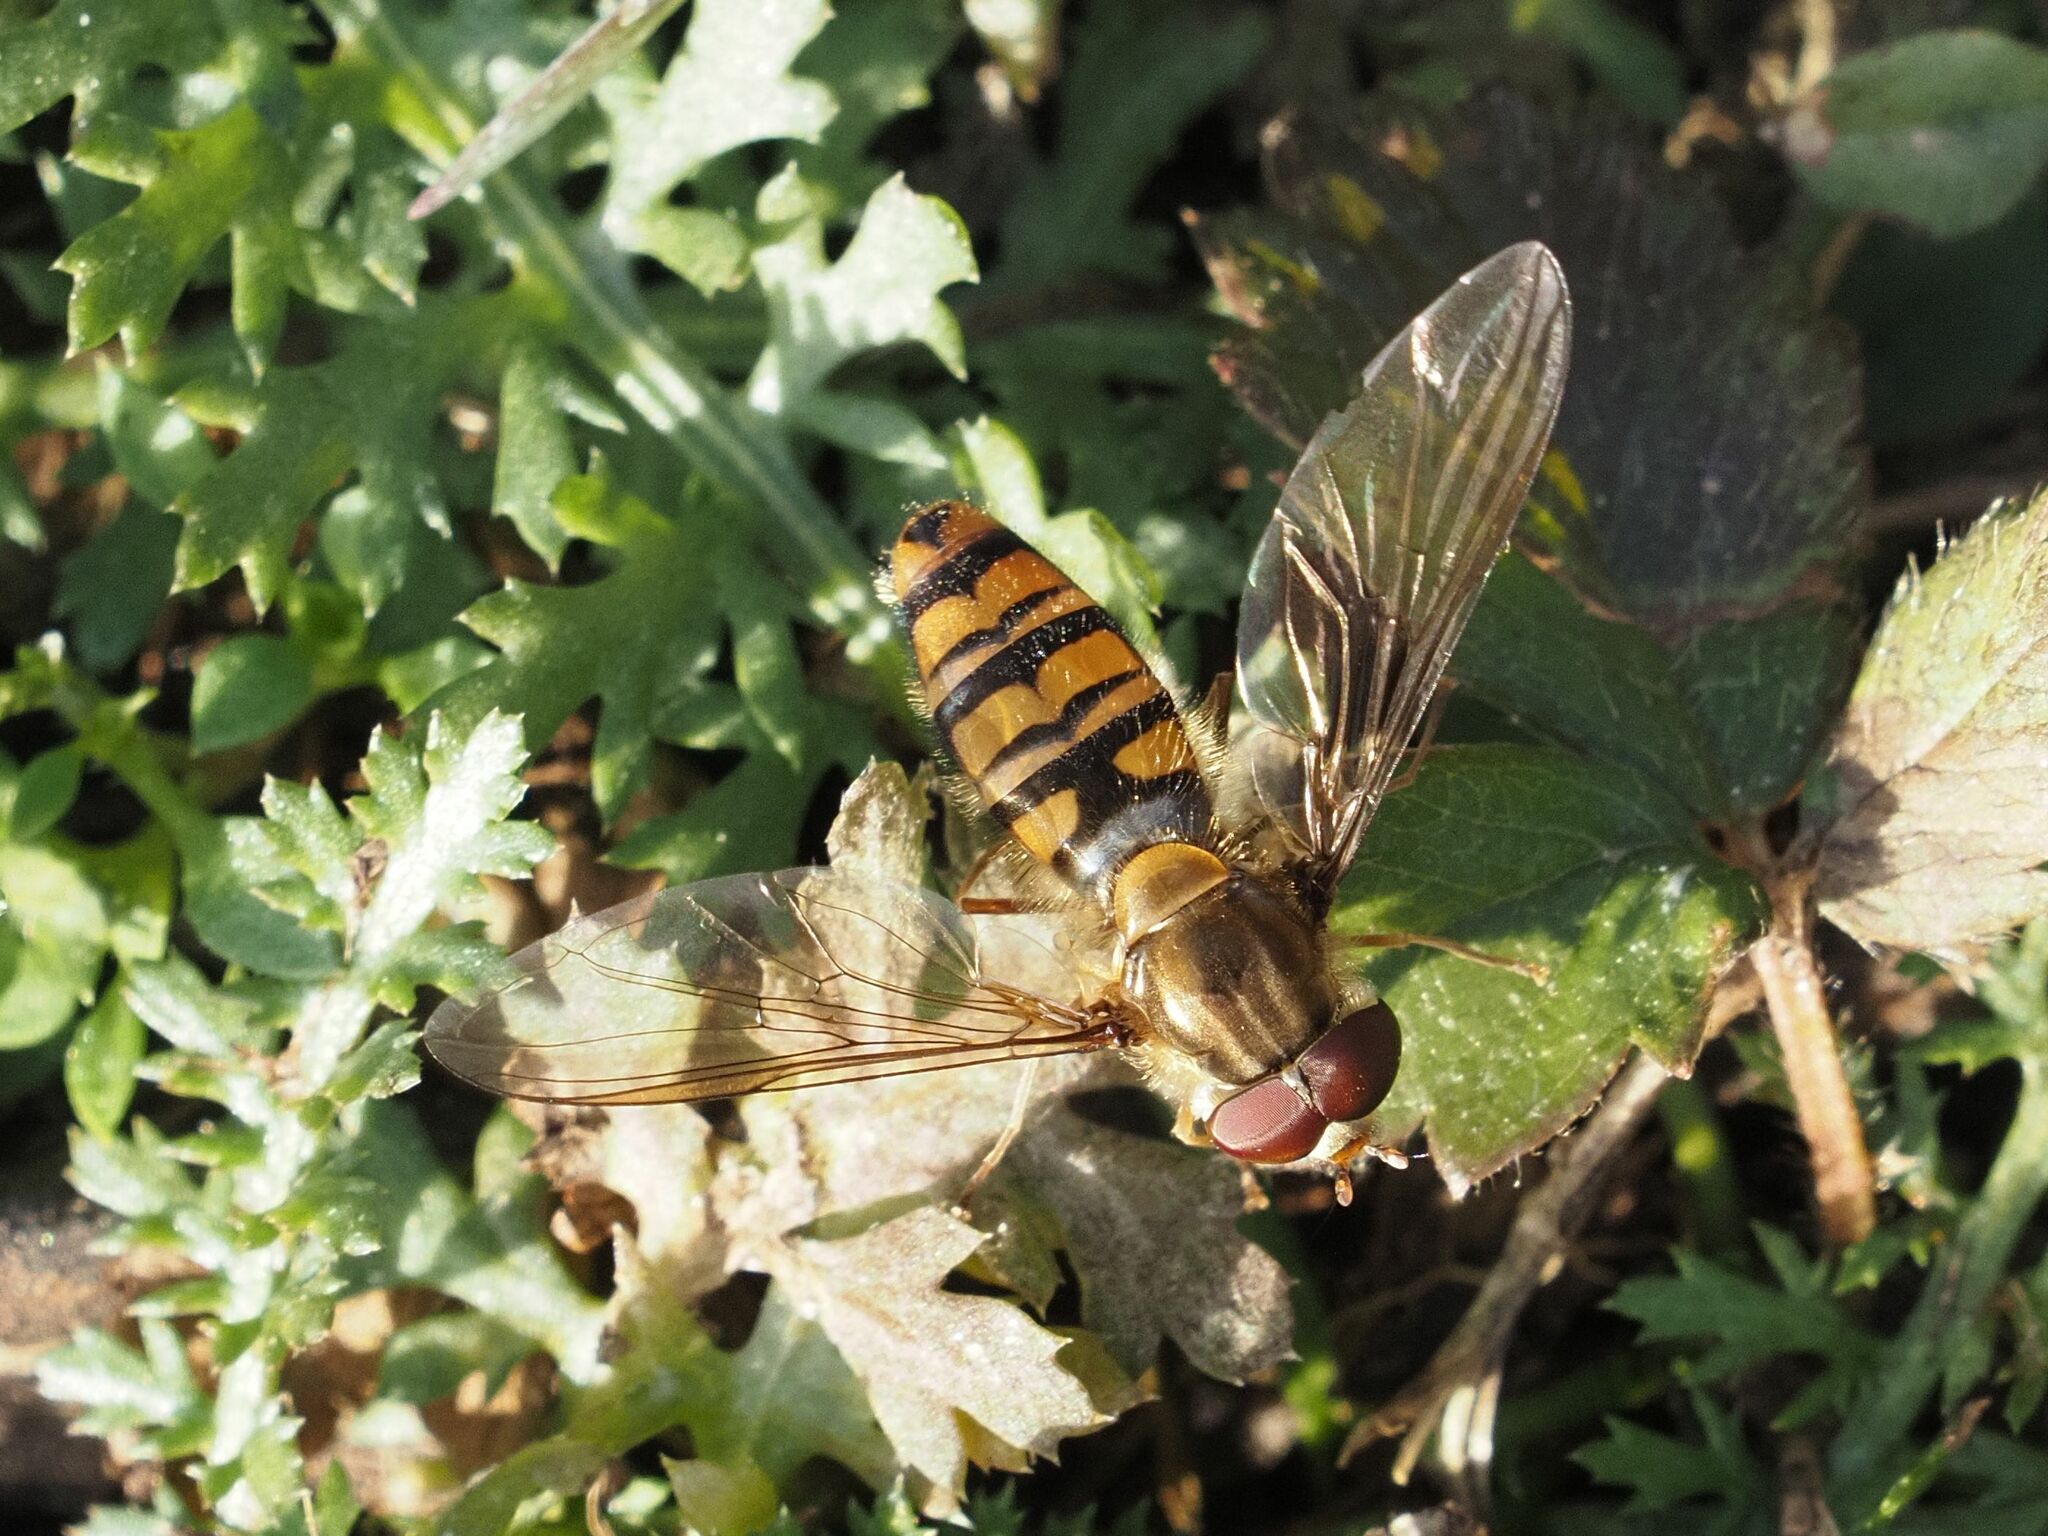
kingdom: Animalia
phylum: Arthropoda
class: Insecta
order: Diptera
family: Syrphidae
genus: Episyrphus
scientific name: Episyrphus balteatus
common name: Marmalade hoverfly
